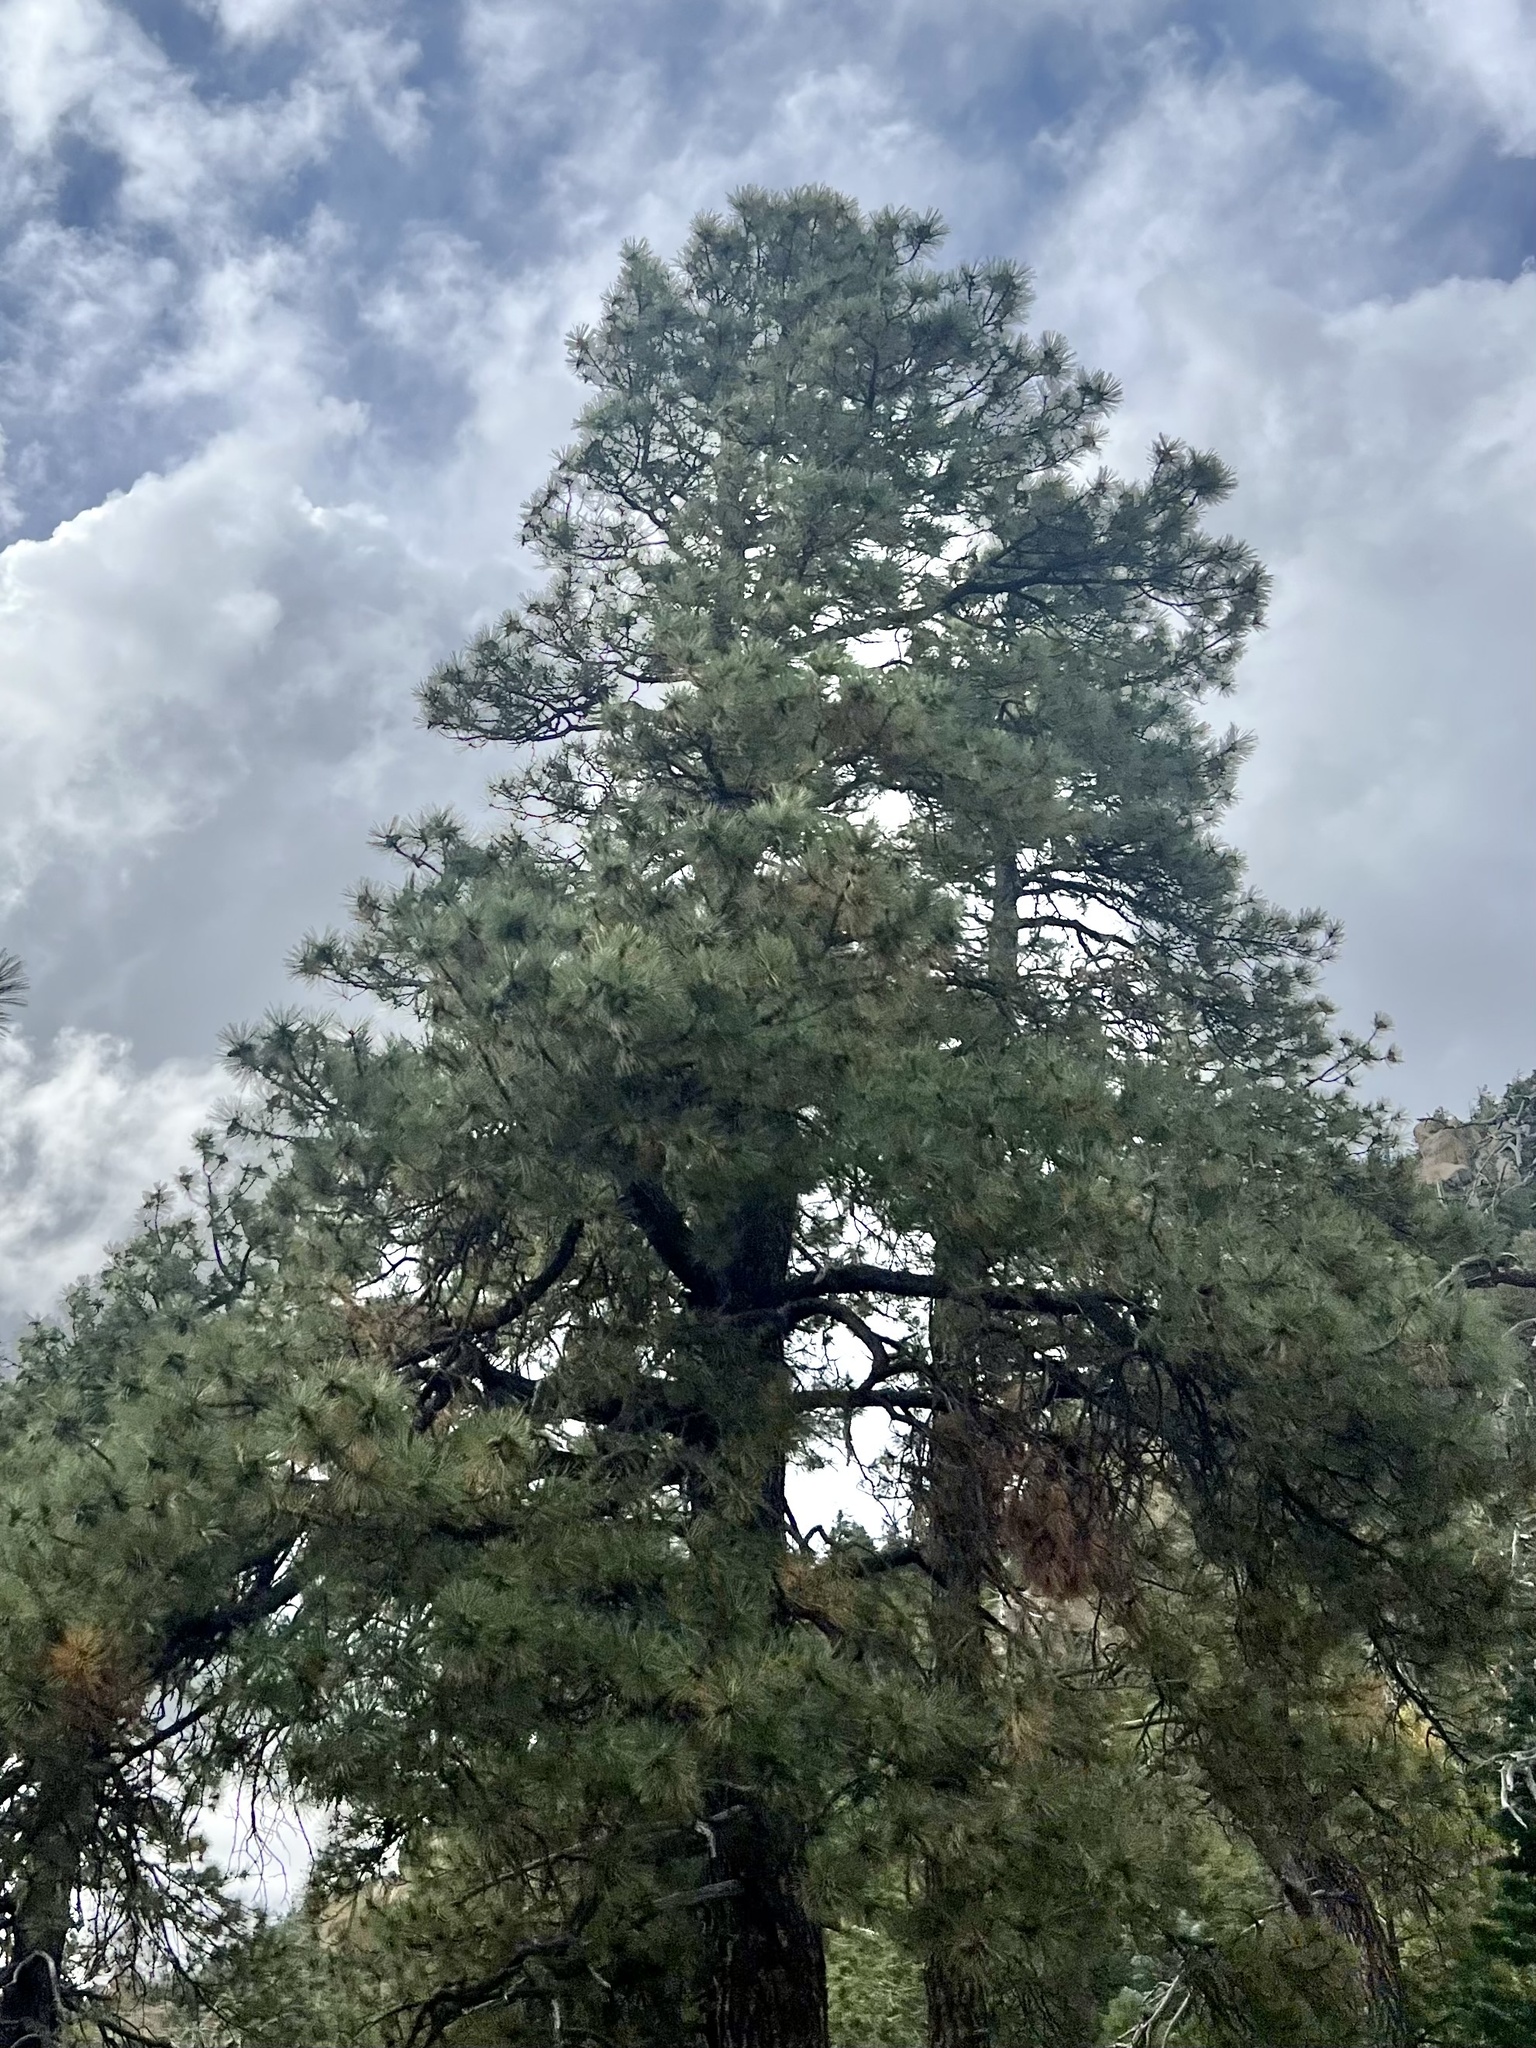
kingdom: Plantae
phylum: Tracheophyta
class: Pinopsida
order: Pinales
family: Pinaceae
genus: Pinus
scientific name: Pinus ponderosa
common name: Western yellow-pine
